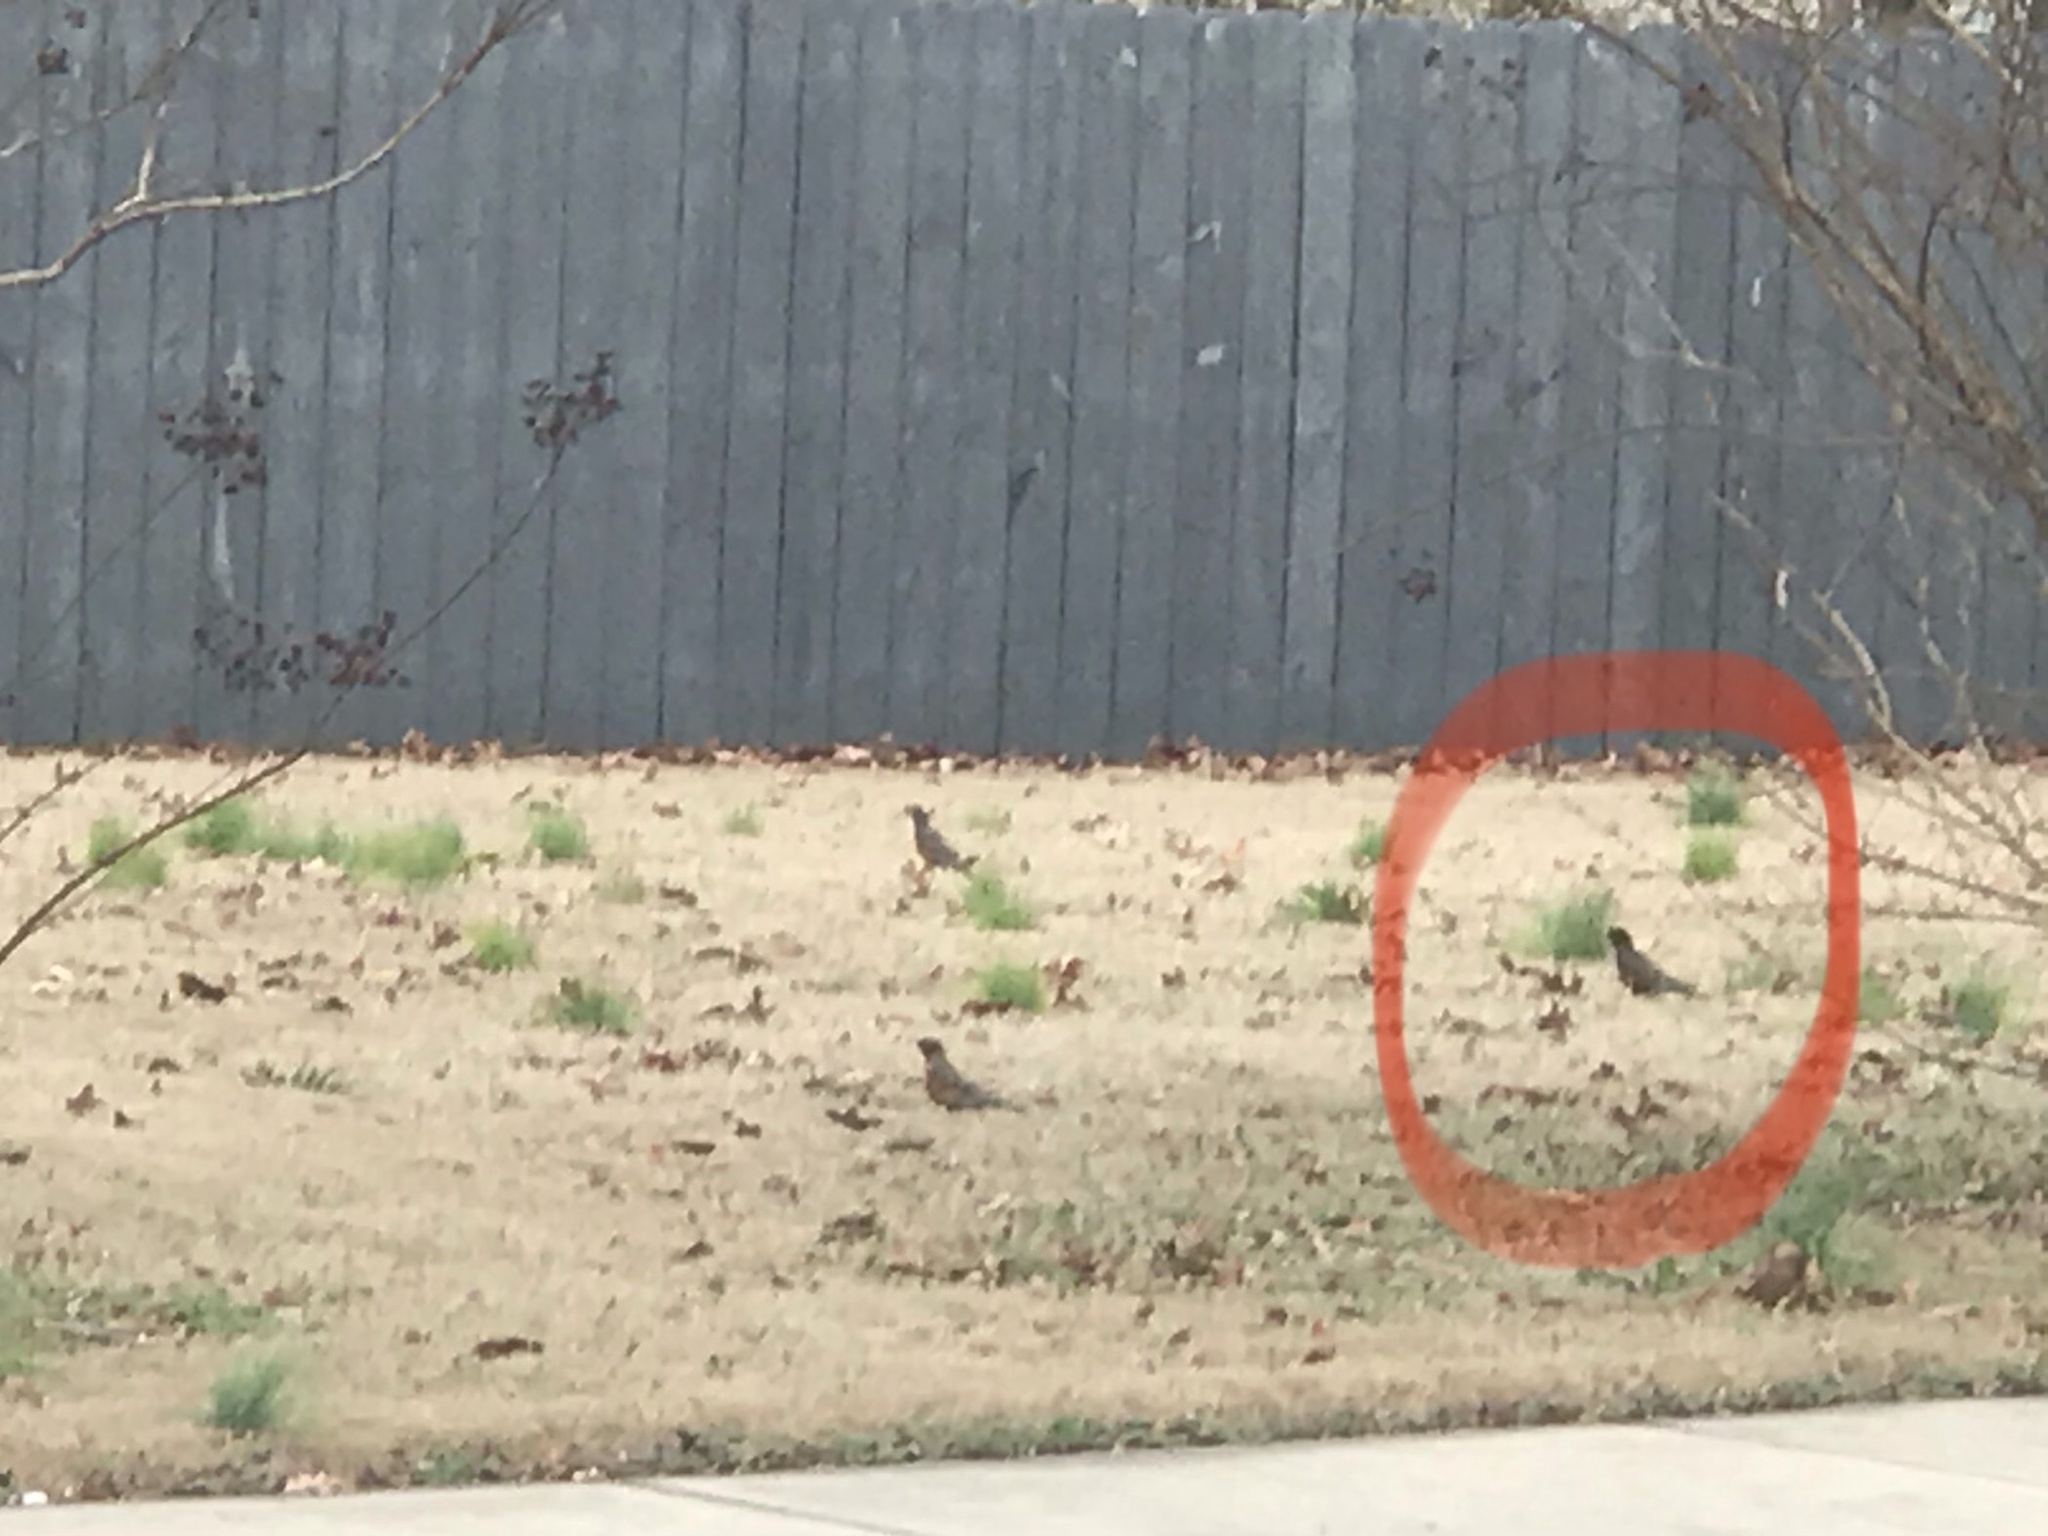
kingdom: Animalia
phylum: Chordata
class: Aves
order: Passeriformes
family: Turdidae
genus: Turdus
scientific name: Turdus migratorius
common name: American robin
